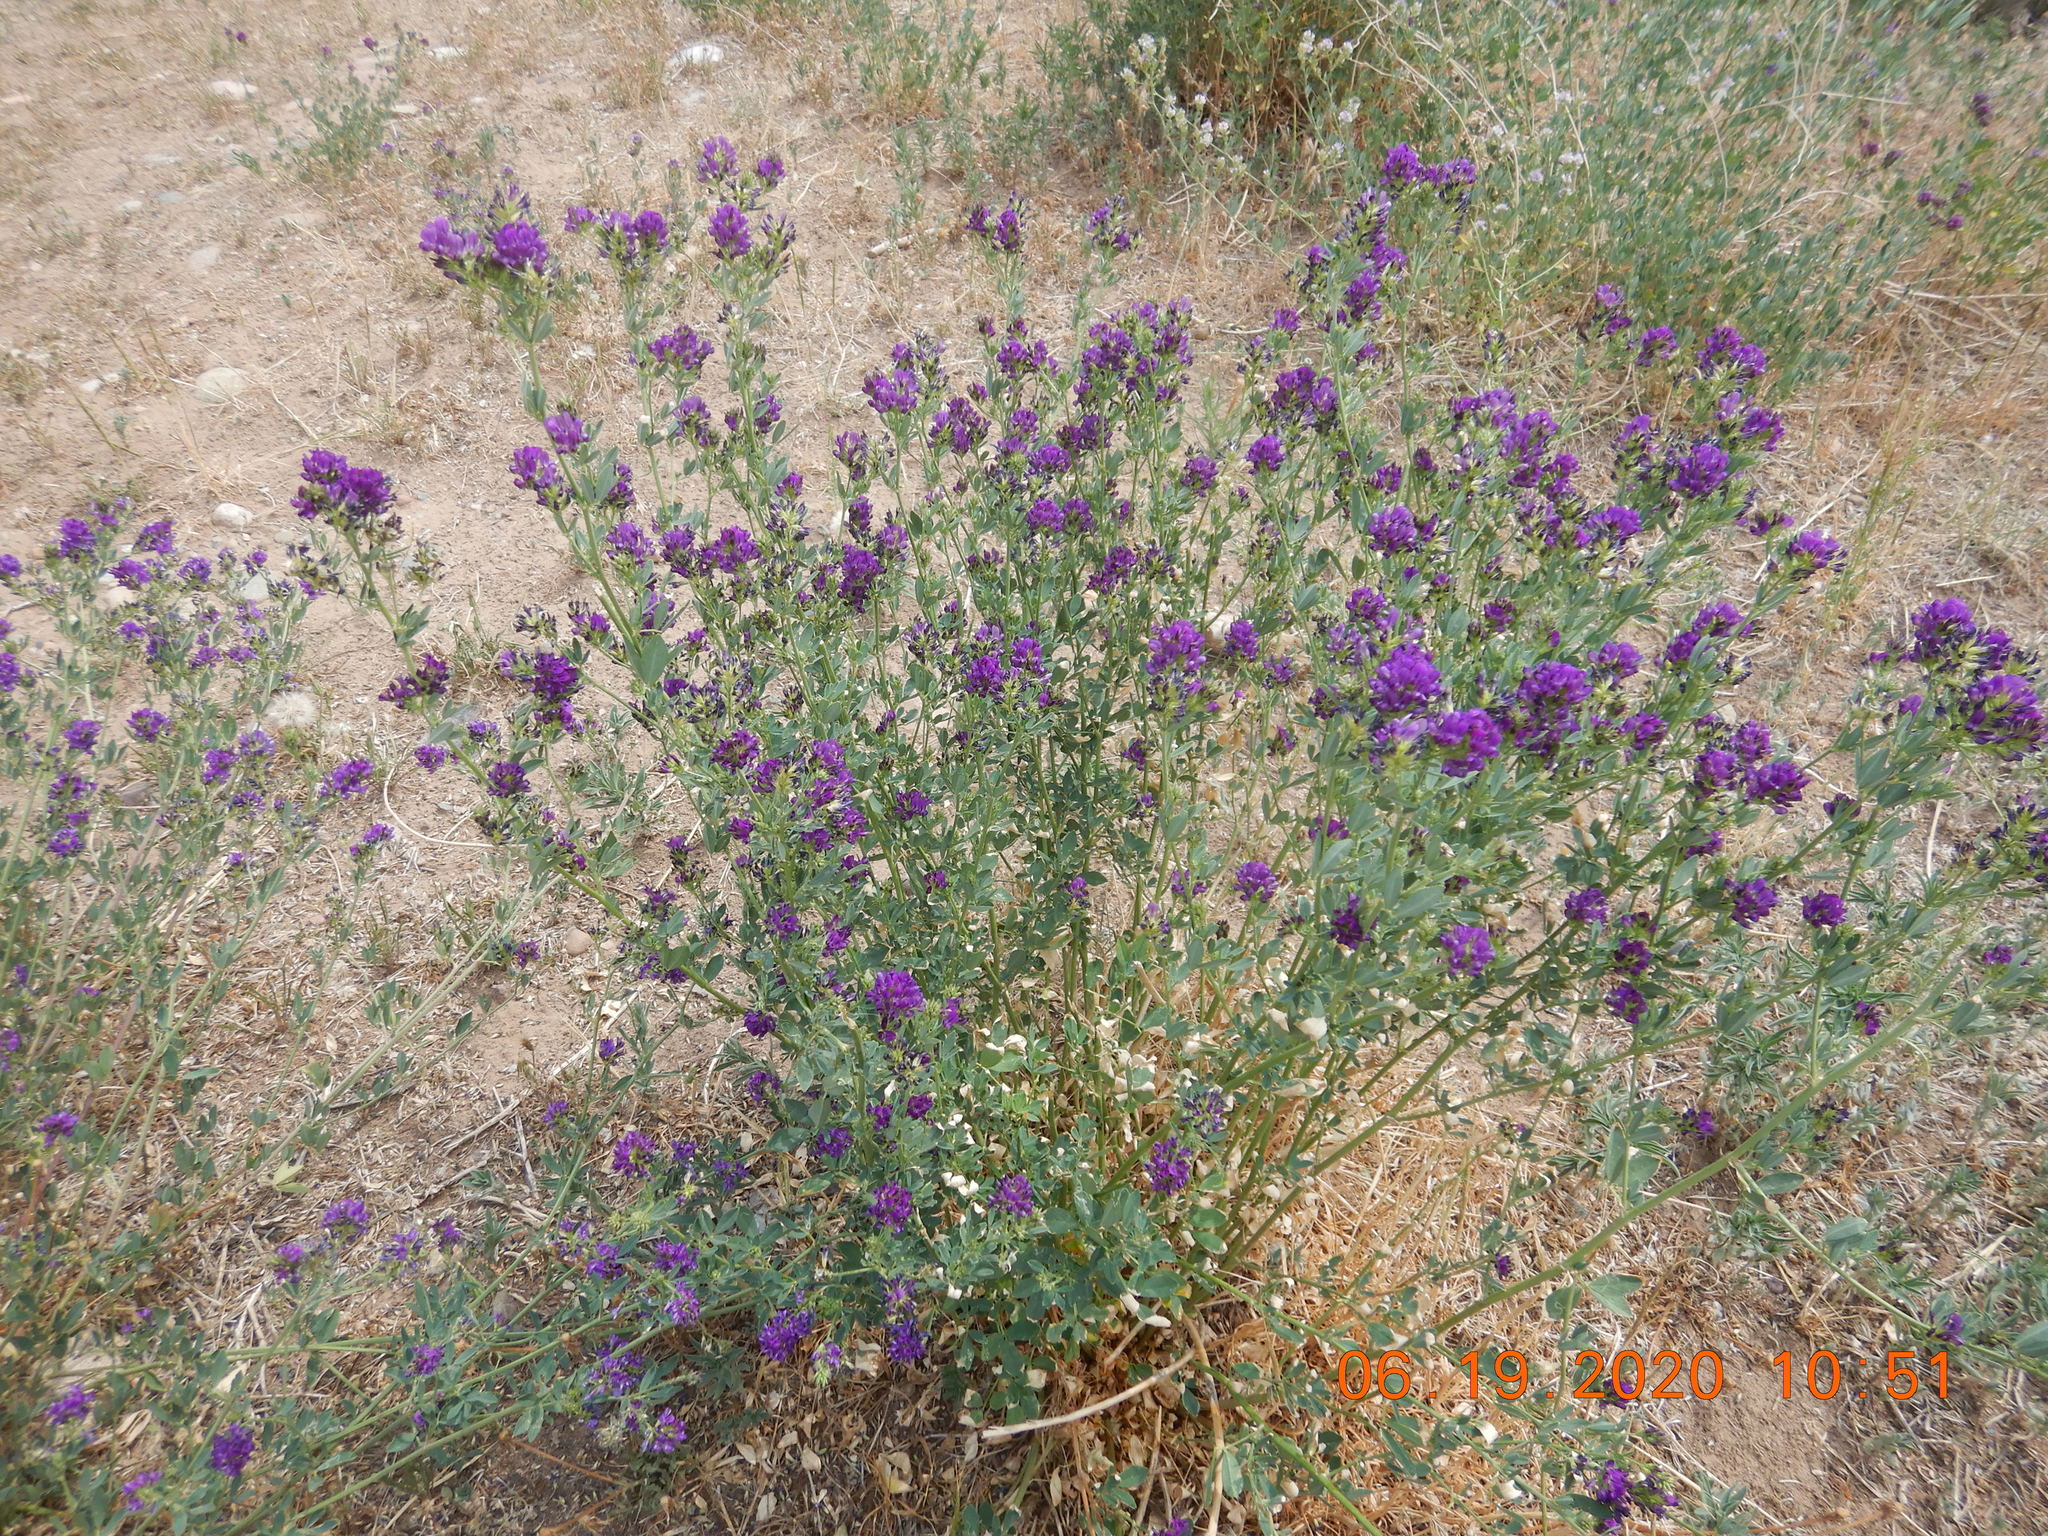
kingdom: Plantae
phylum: Tracheophyta
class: Magnoliopsida
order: Fabales
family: Fabaceae
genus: Medicago
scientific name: Medicago sativa
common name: Alfalfa
